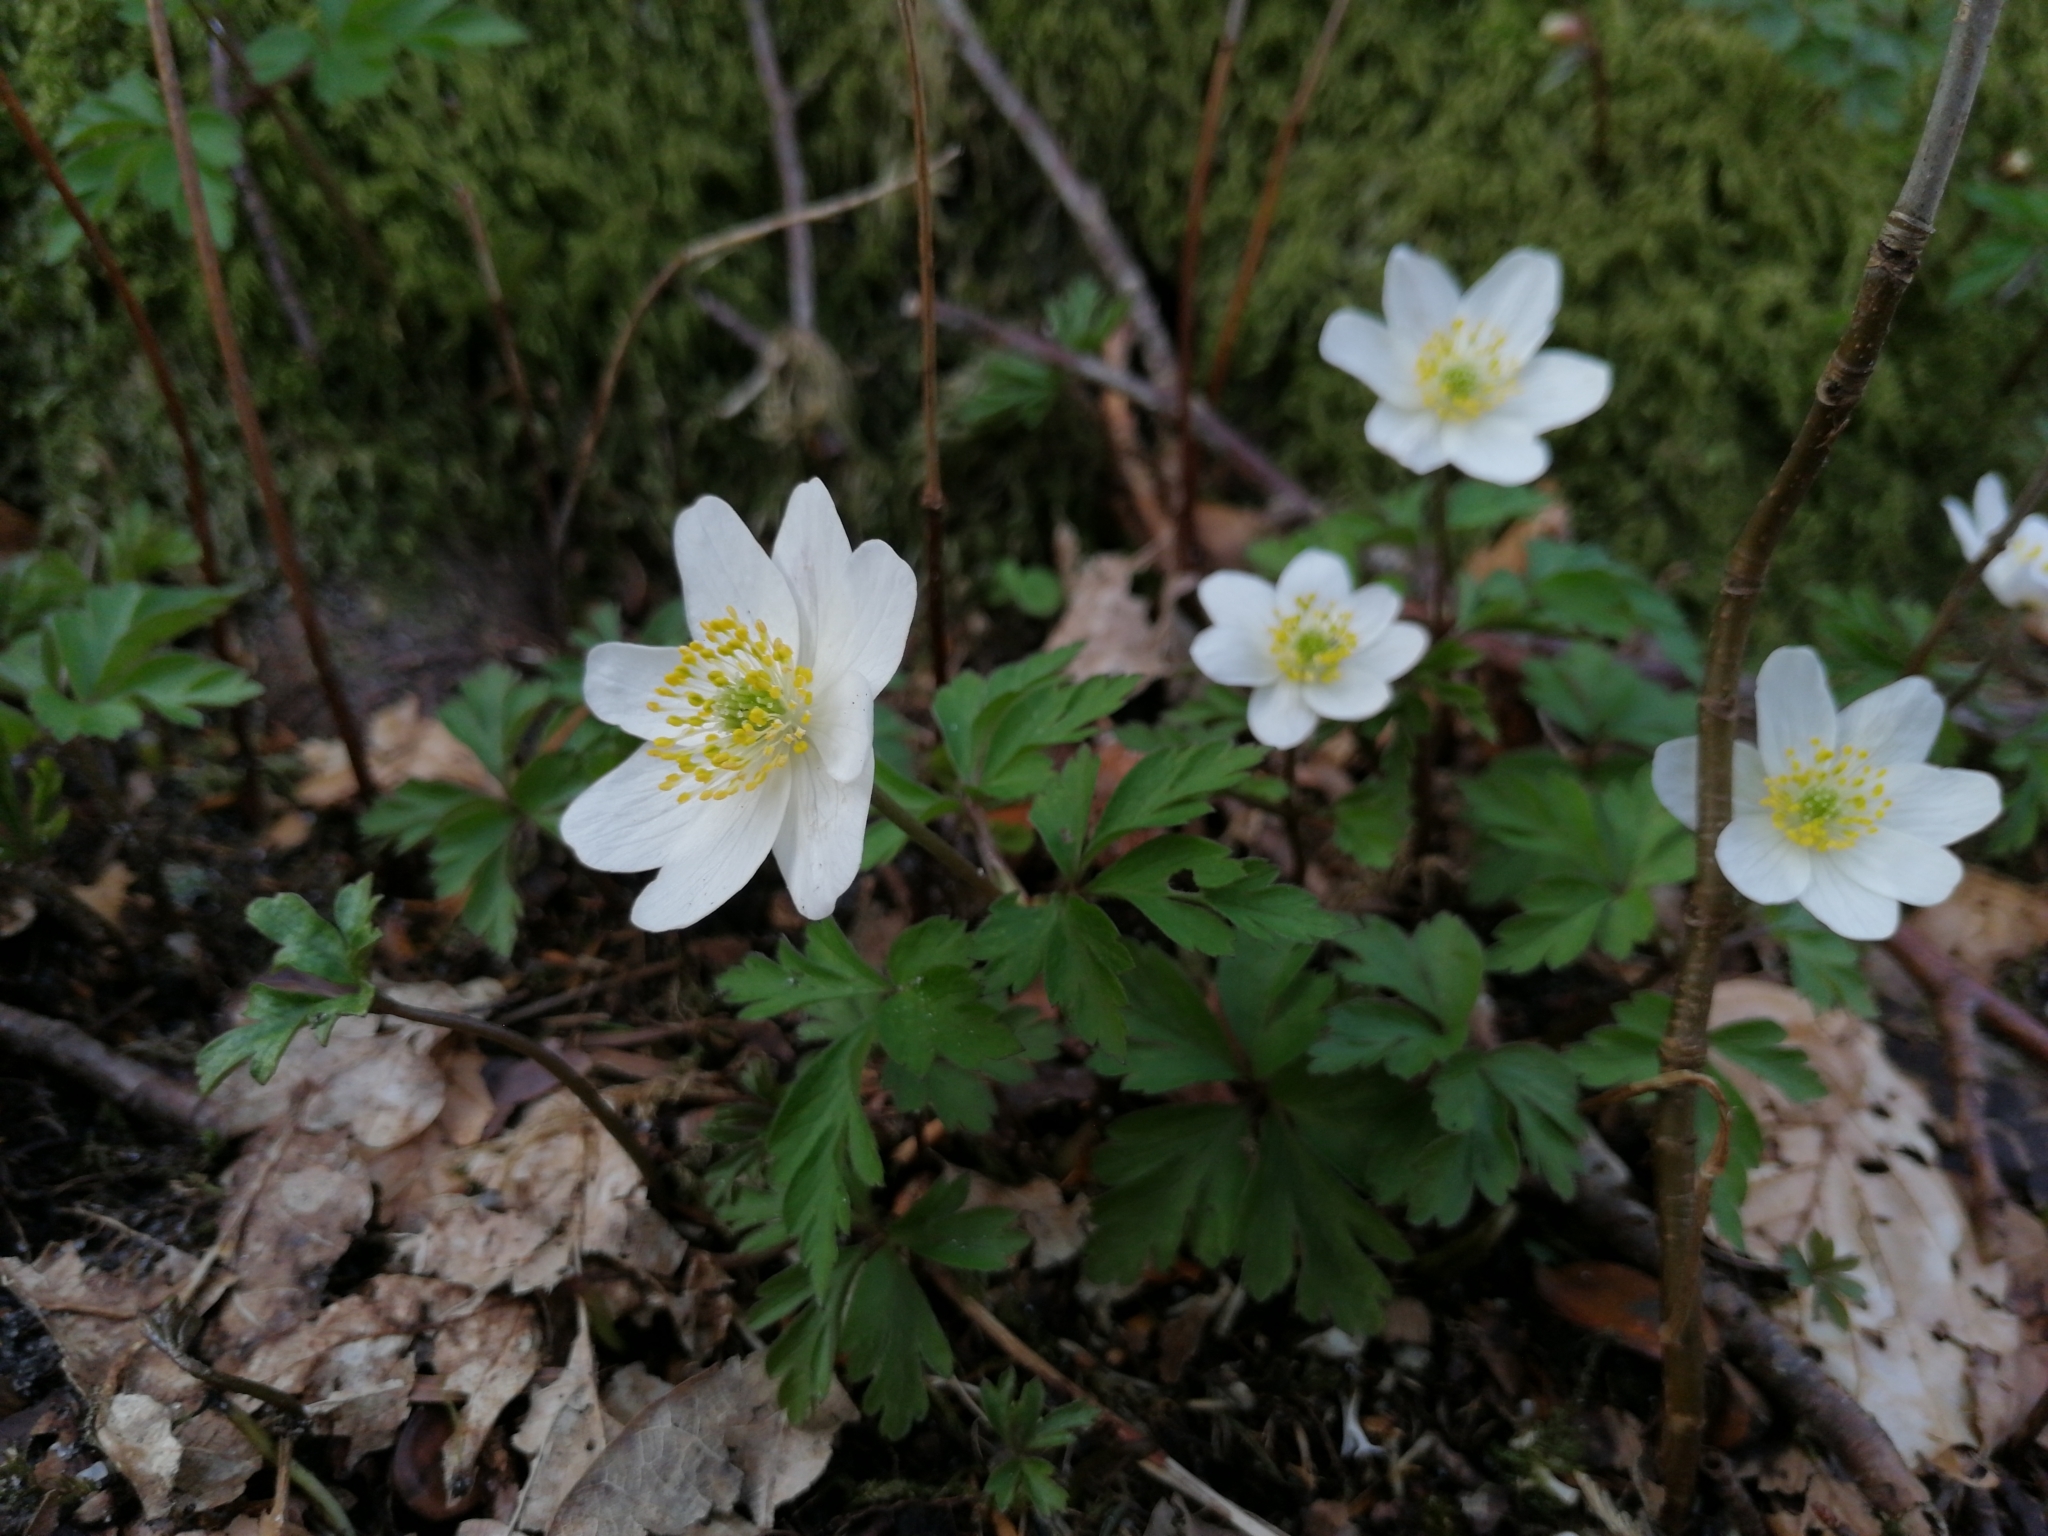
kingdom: Plantae
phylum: Tracheophyta
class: Magnoliopsida
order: Ranunculales
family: Ranunculaceae
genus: Anemone
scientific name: Anemone nemorosa
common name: Wood anemone
